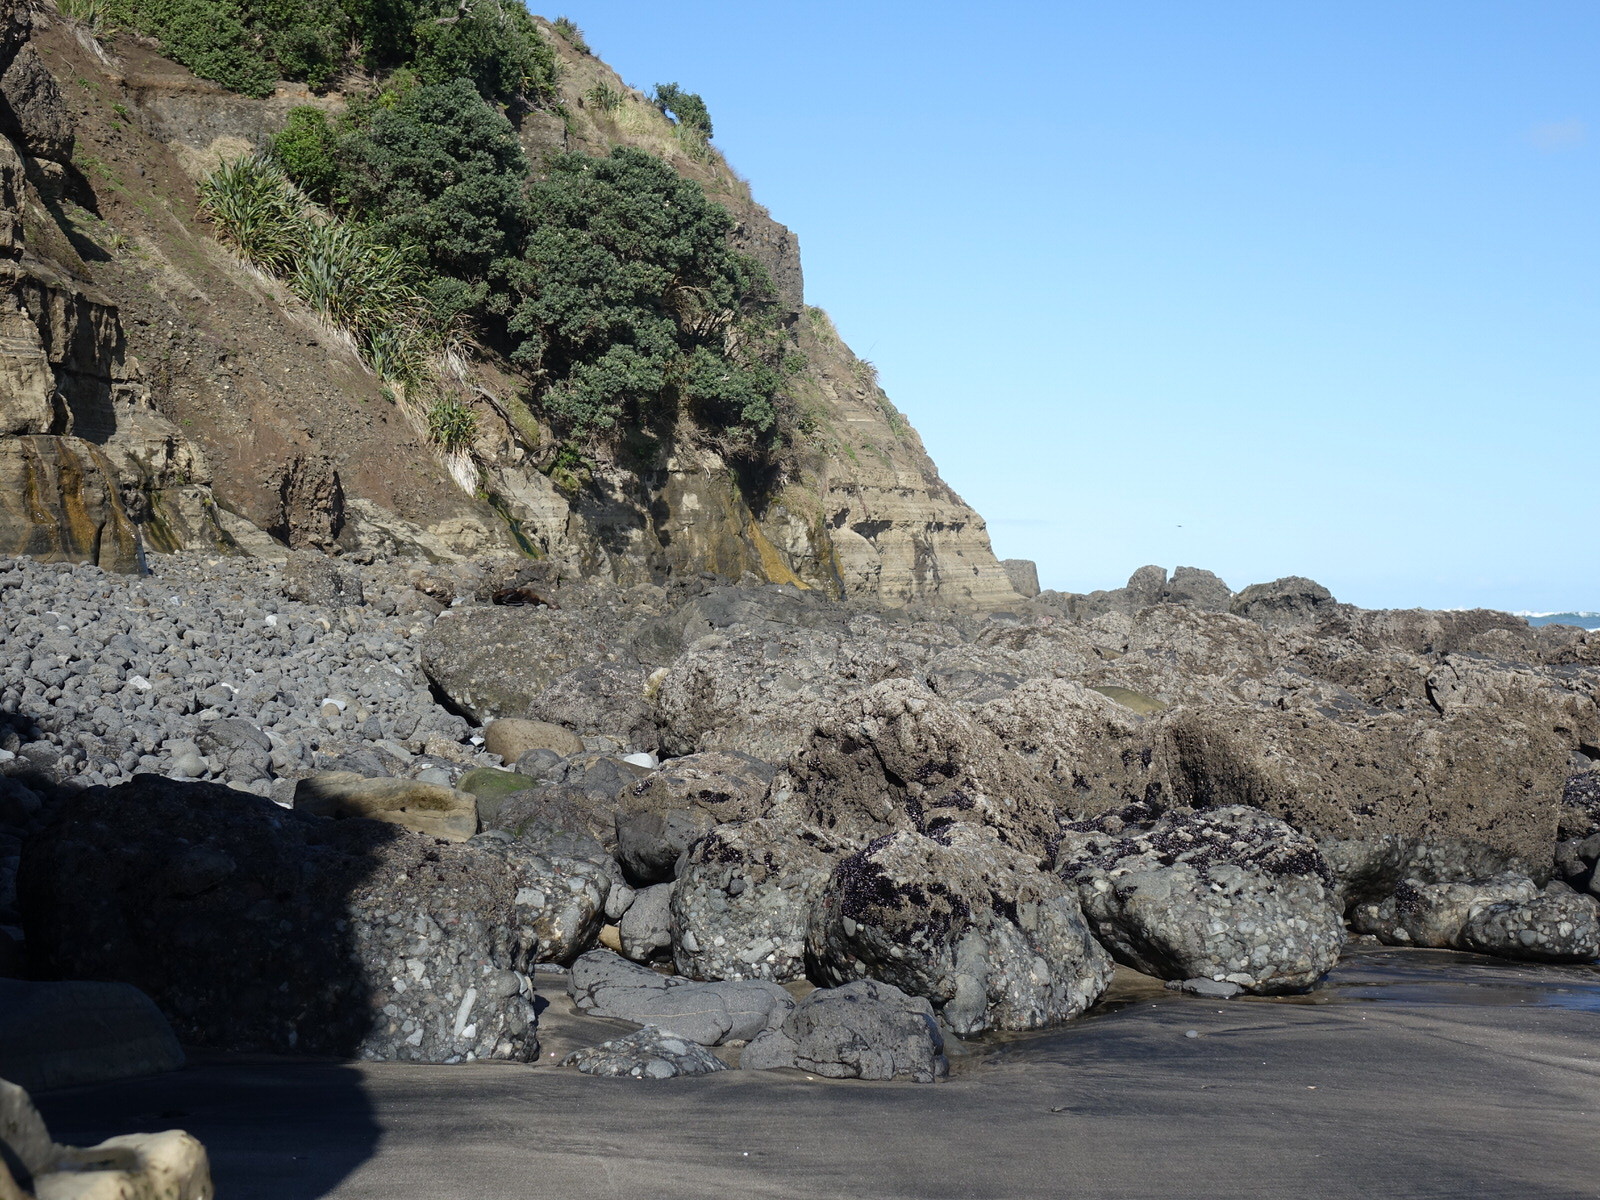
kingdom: Animalia
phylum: Chordata
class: Mammalia
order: Carnivora
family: Otariidae
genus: Arctocephalus
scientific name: Arctocephalus forsteri
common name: New zealand fur seal
